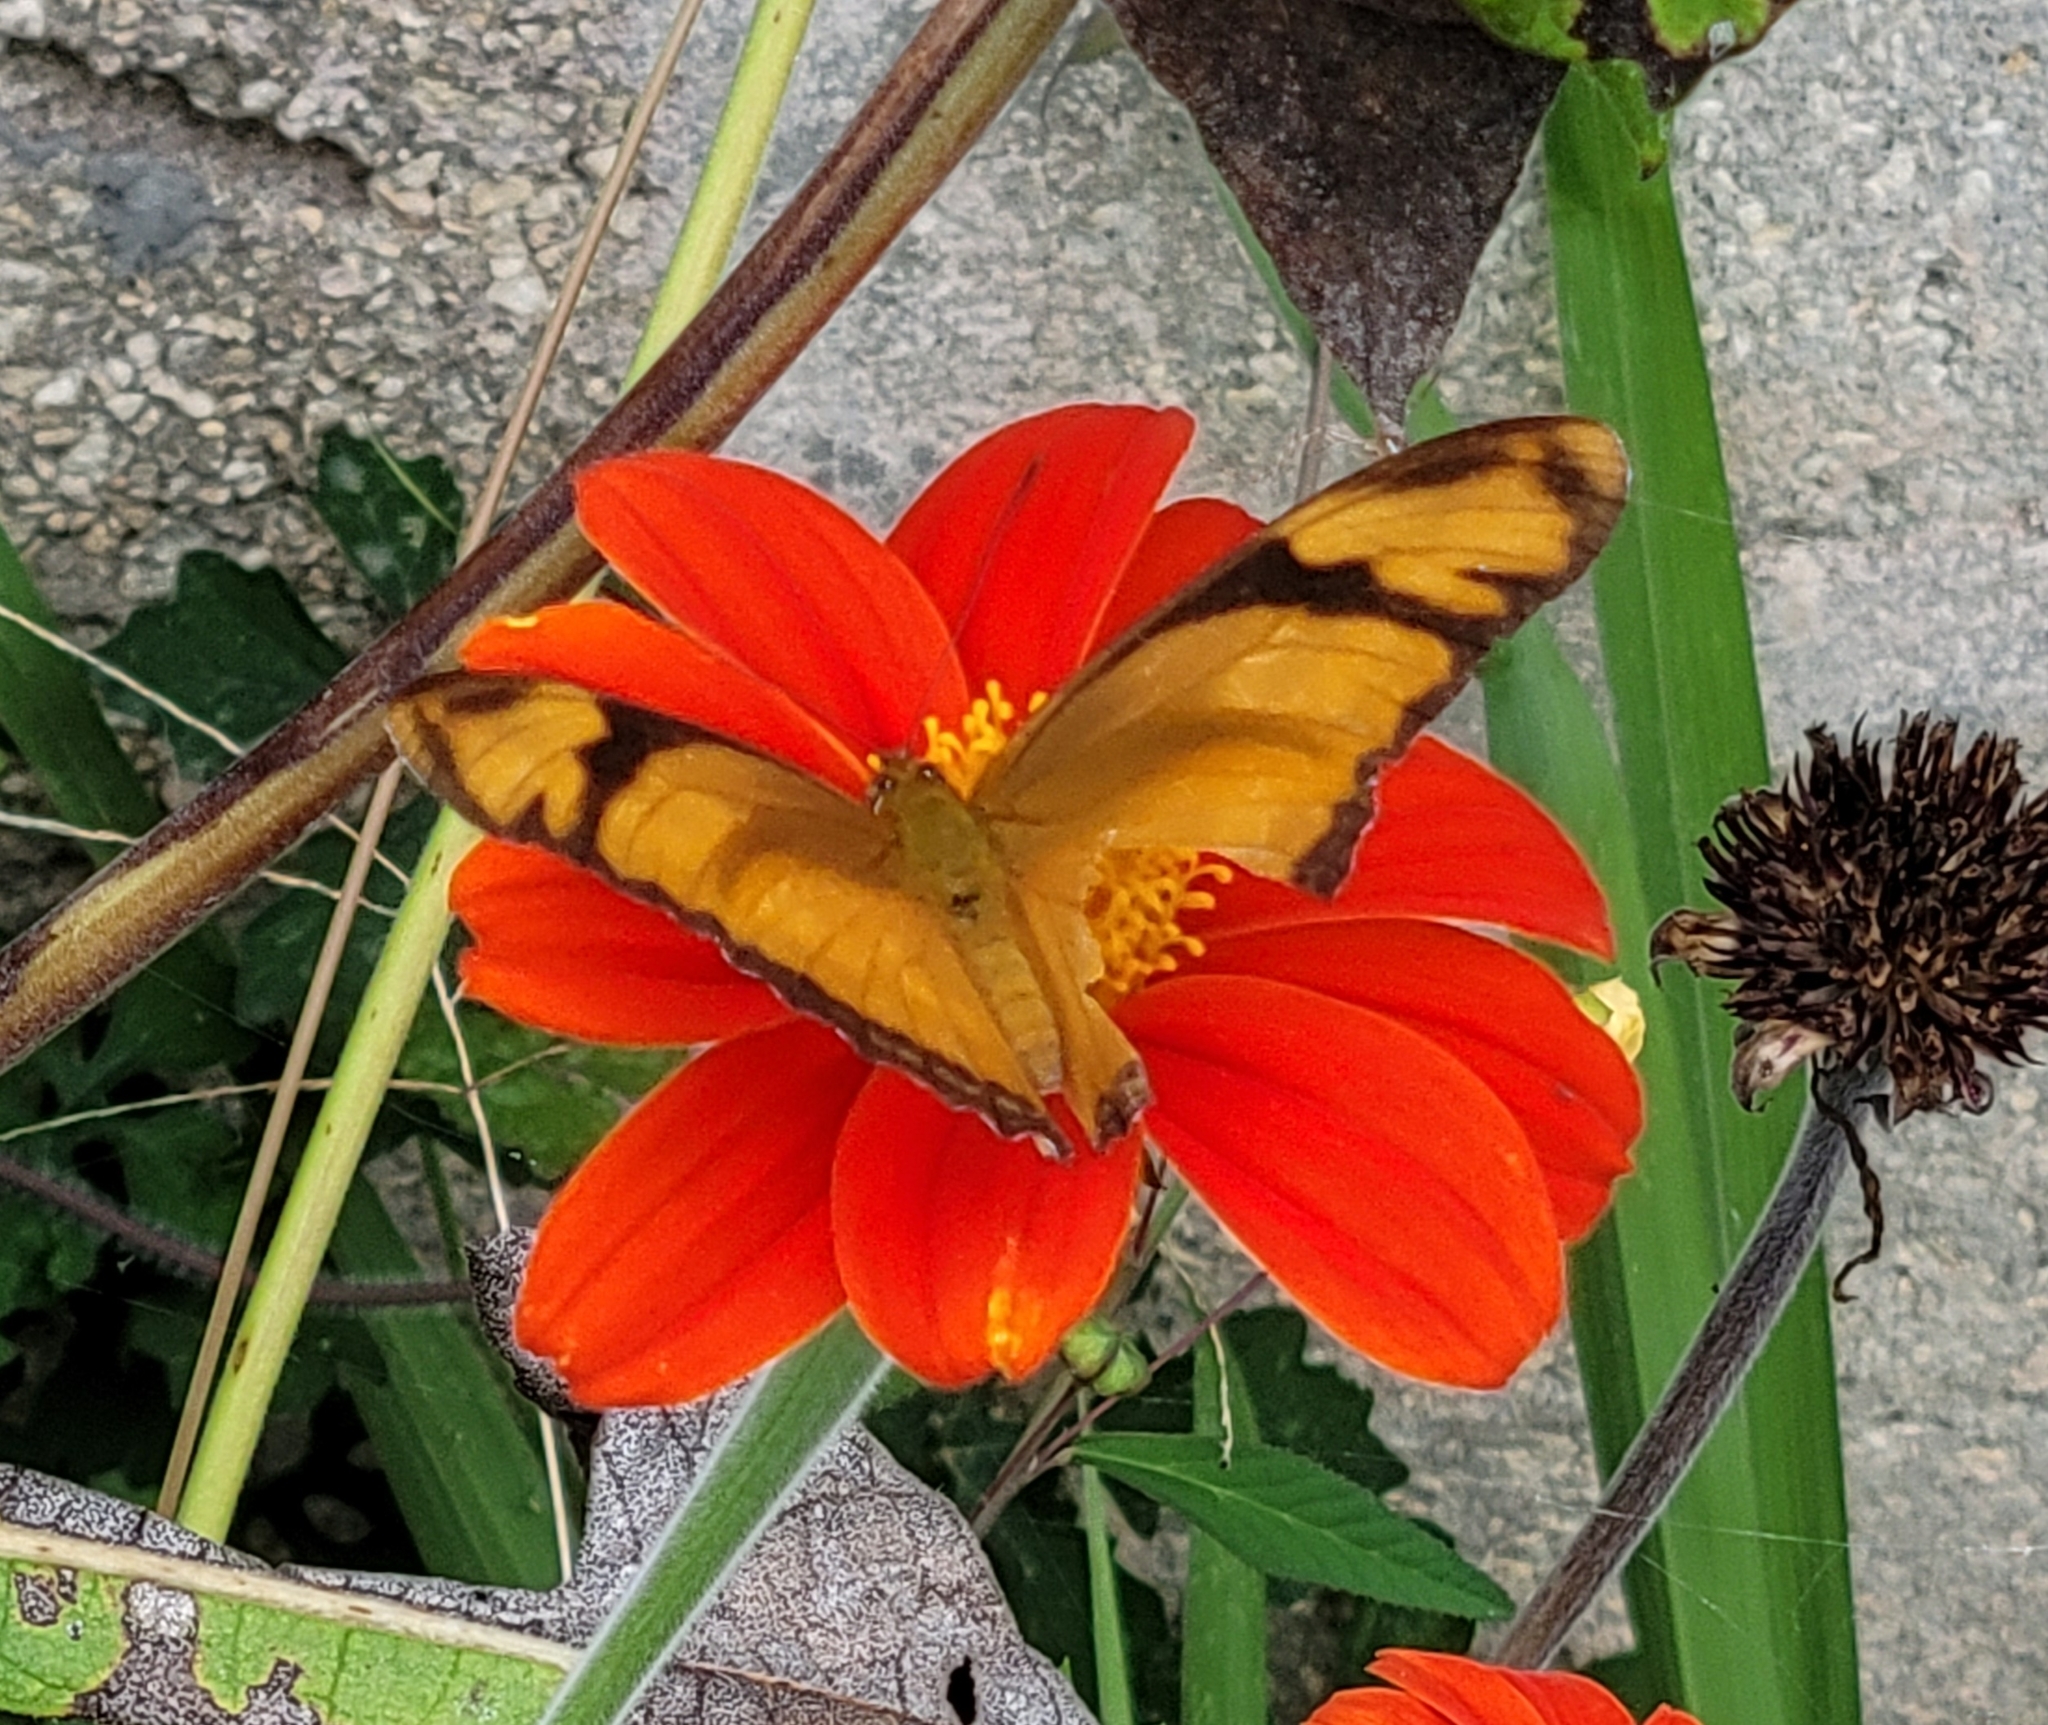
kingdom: Animalia
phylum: Arthropoda
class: Insecta
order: Lepidoptera
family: Nymphalidae
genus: Dryas
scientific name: Dryas iulia
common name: Flambeau
